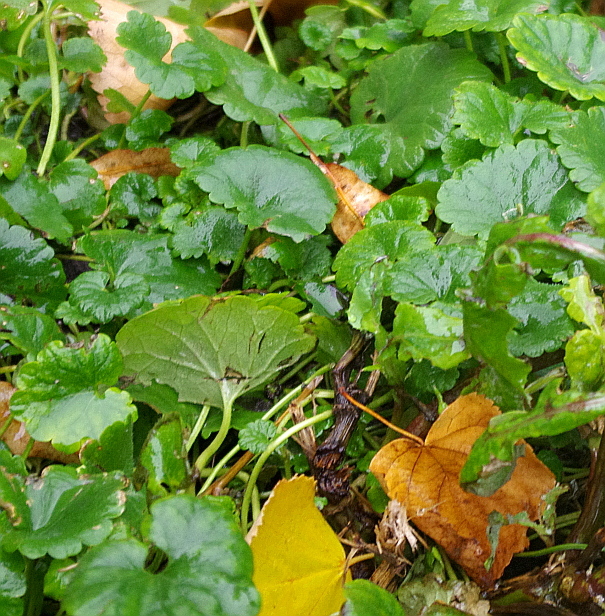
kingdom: Plantae
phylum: Tracheophyta
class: Magnoliopsida
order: Lamiales
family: Lamiaceae
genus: Glechoma
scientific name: Glechoma hederacea
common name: Ground ivy
